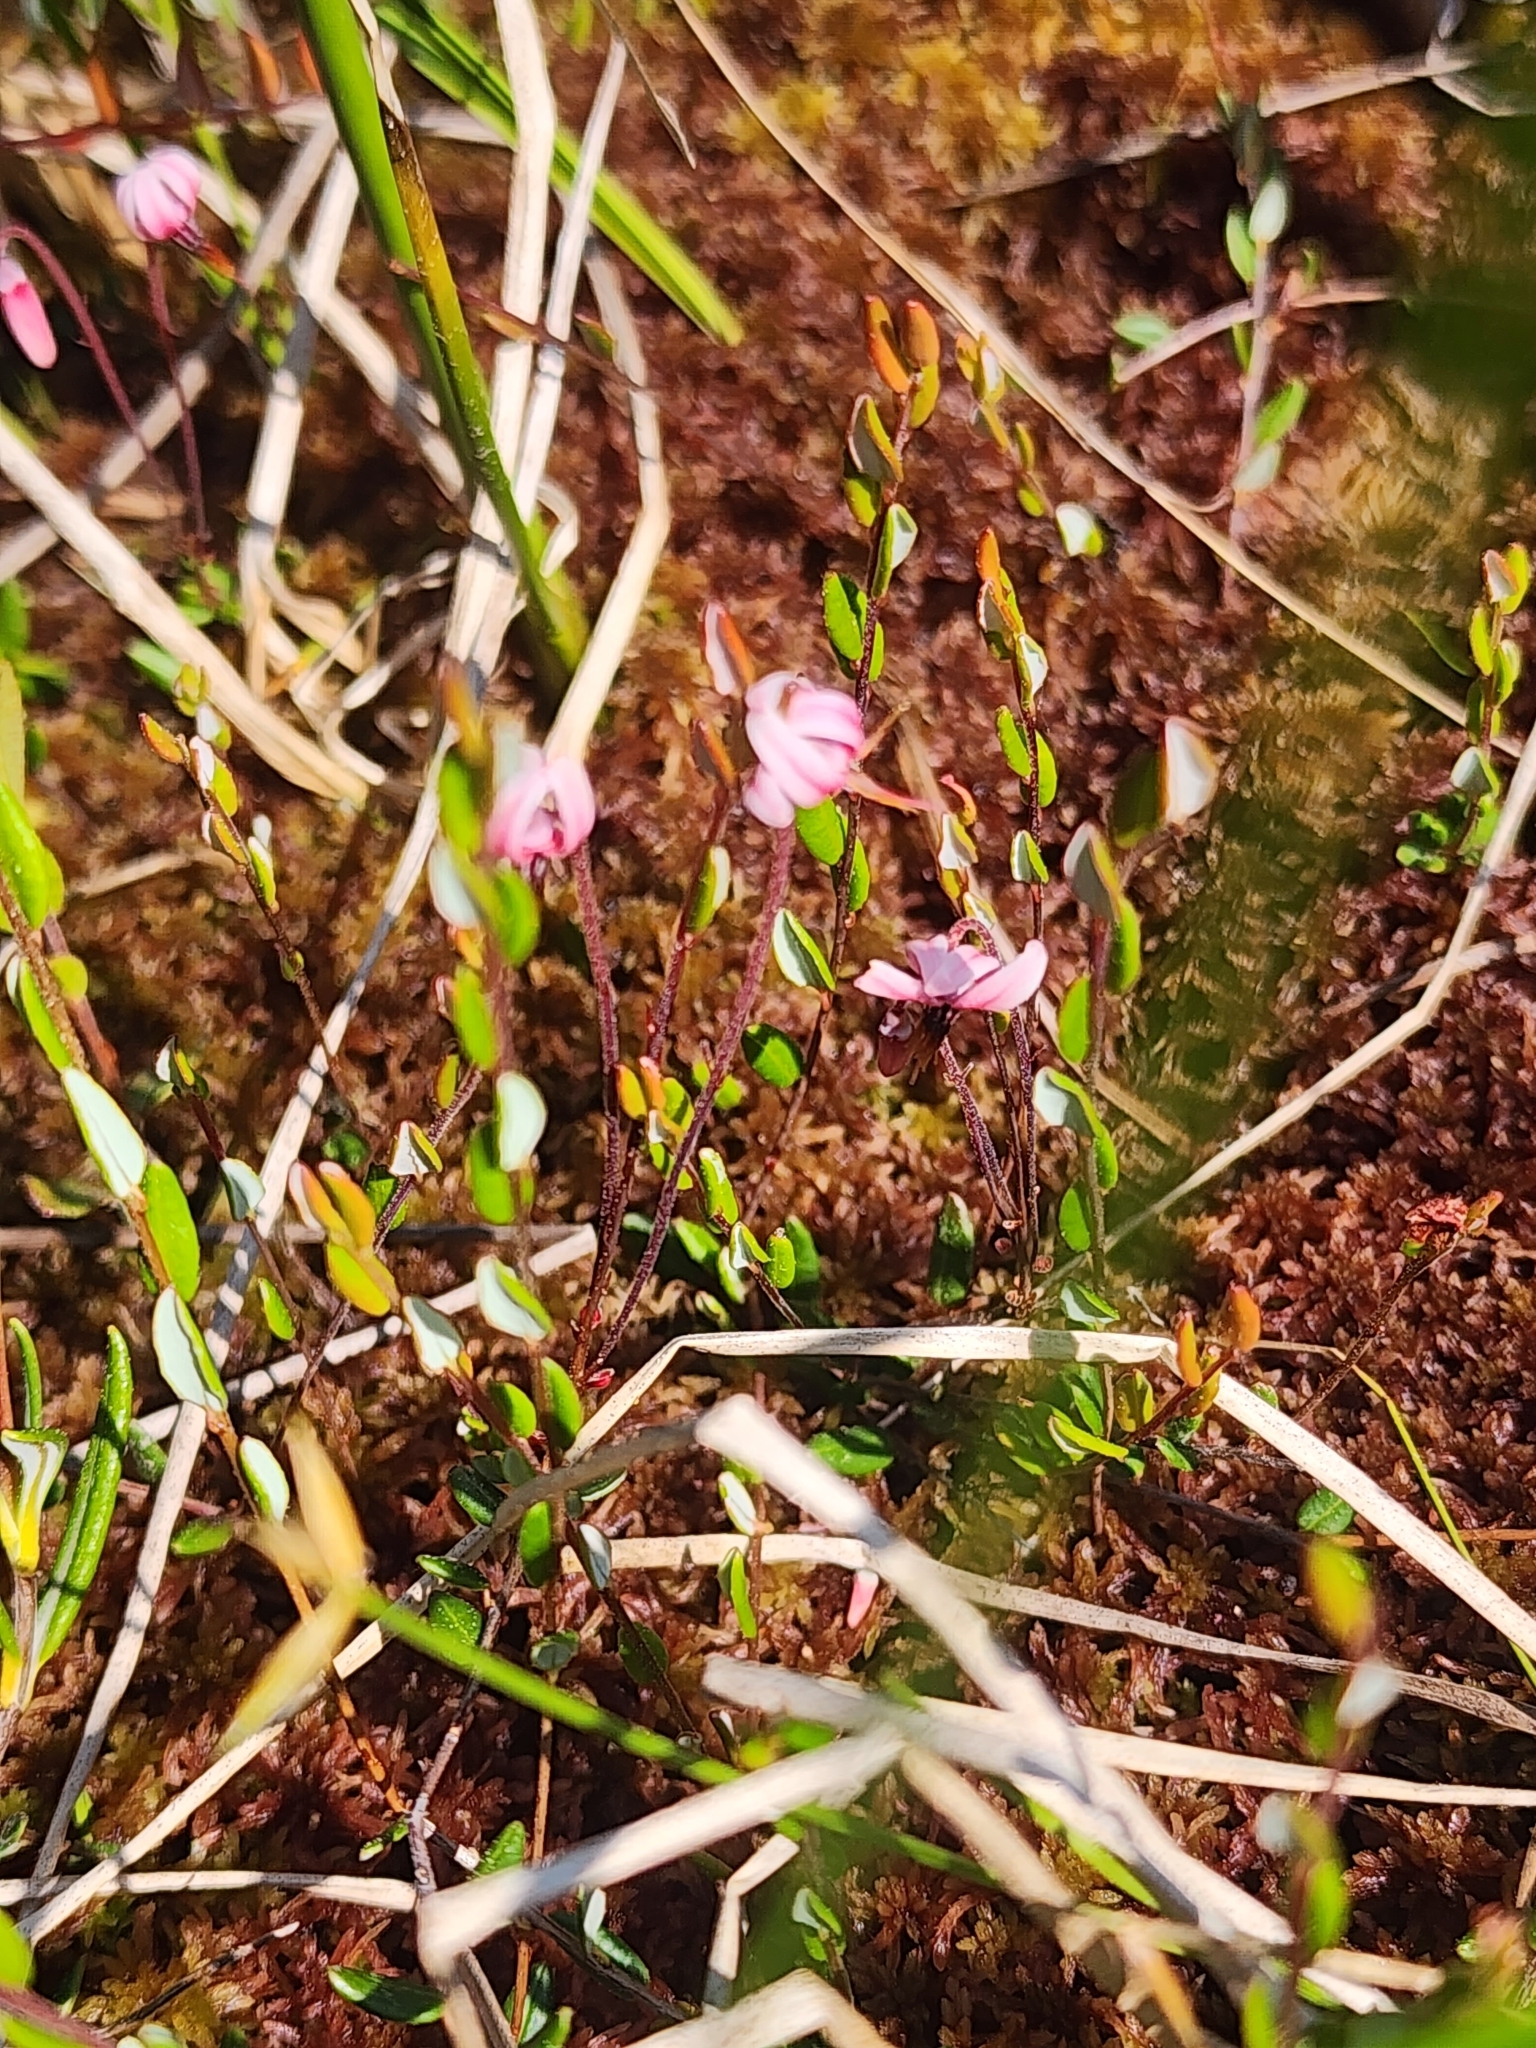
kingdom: Plantae
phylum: Tracheophyta
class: Magnoliopsida
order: Ericales
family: Ericaceae
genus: Vaccinium
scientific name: Vaccinium oxycoccos
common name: Cranberry
